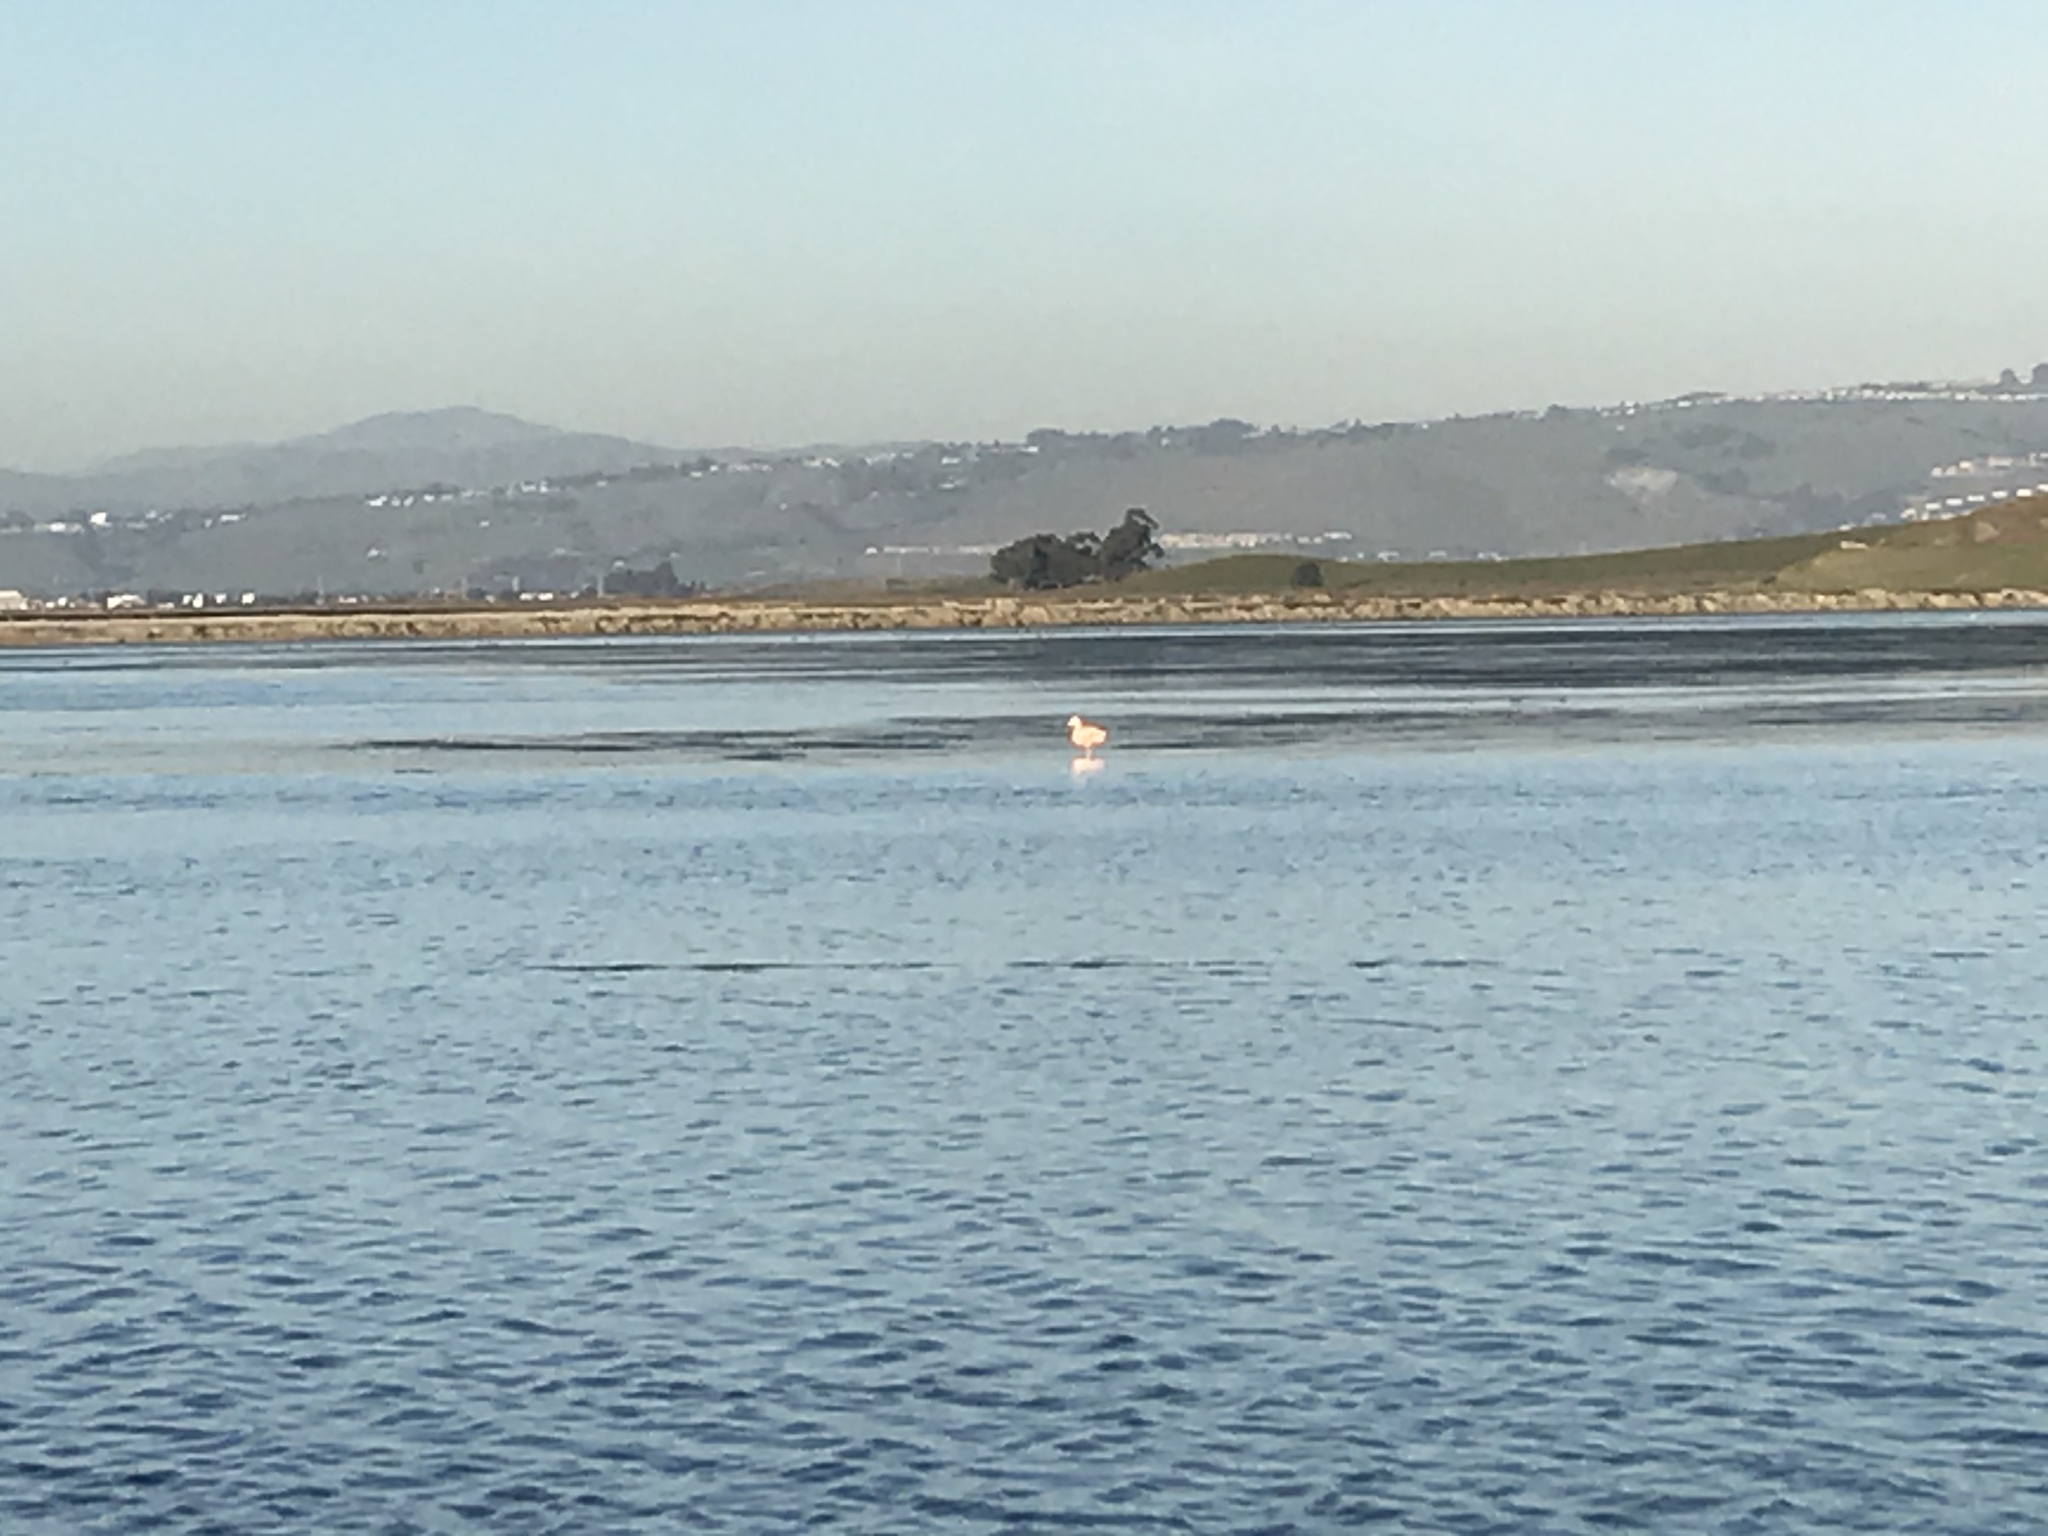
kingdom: Animalia
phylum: Chordata
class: Aves
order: Phoenicopteriformes
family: Phoenicopteridae
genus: Phoenicopterus
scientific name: Phoenicopterus chilensis
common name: Chilean flamingo
